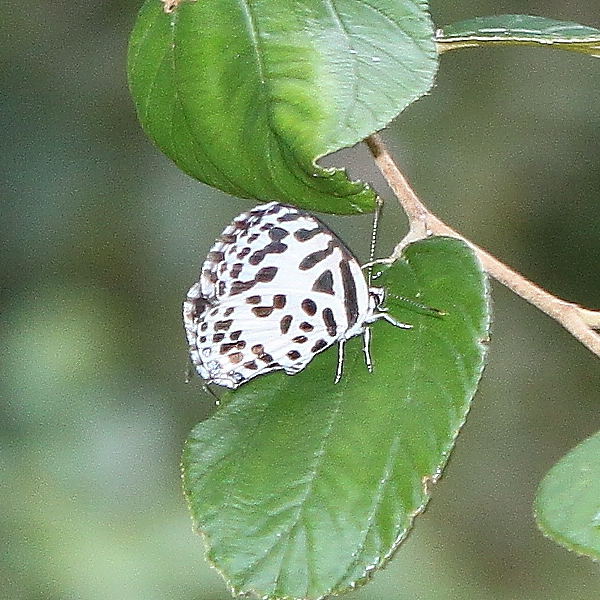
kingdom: Animalia
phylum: Arthropoda
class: Insecta
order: Lepidoptera
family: Lycaenidae
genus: Castalius
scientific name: Castalius rosimon
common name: Common pierrot
